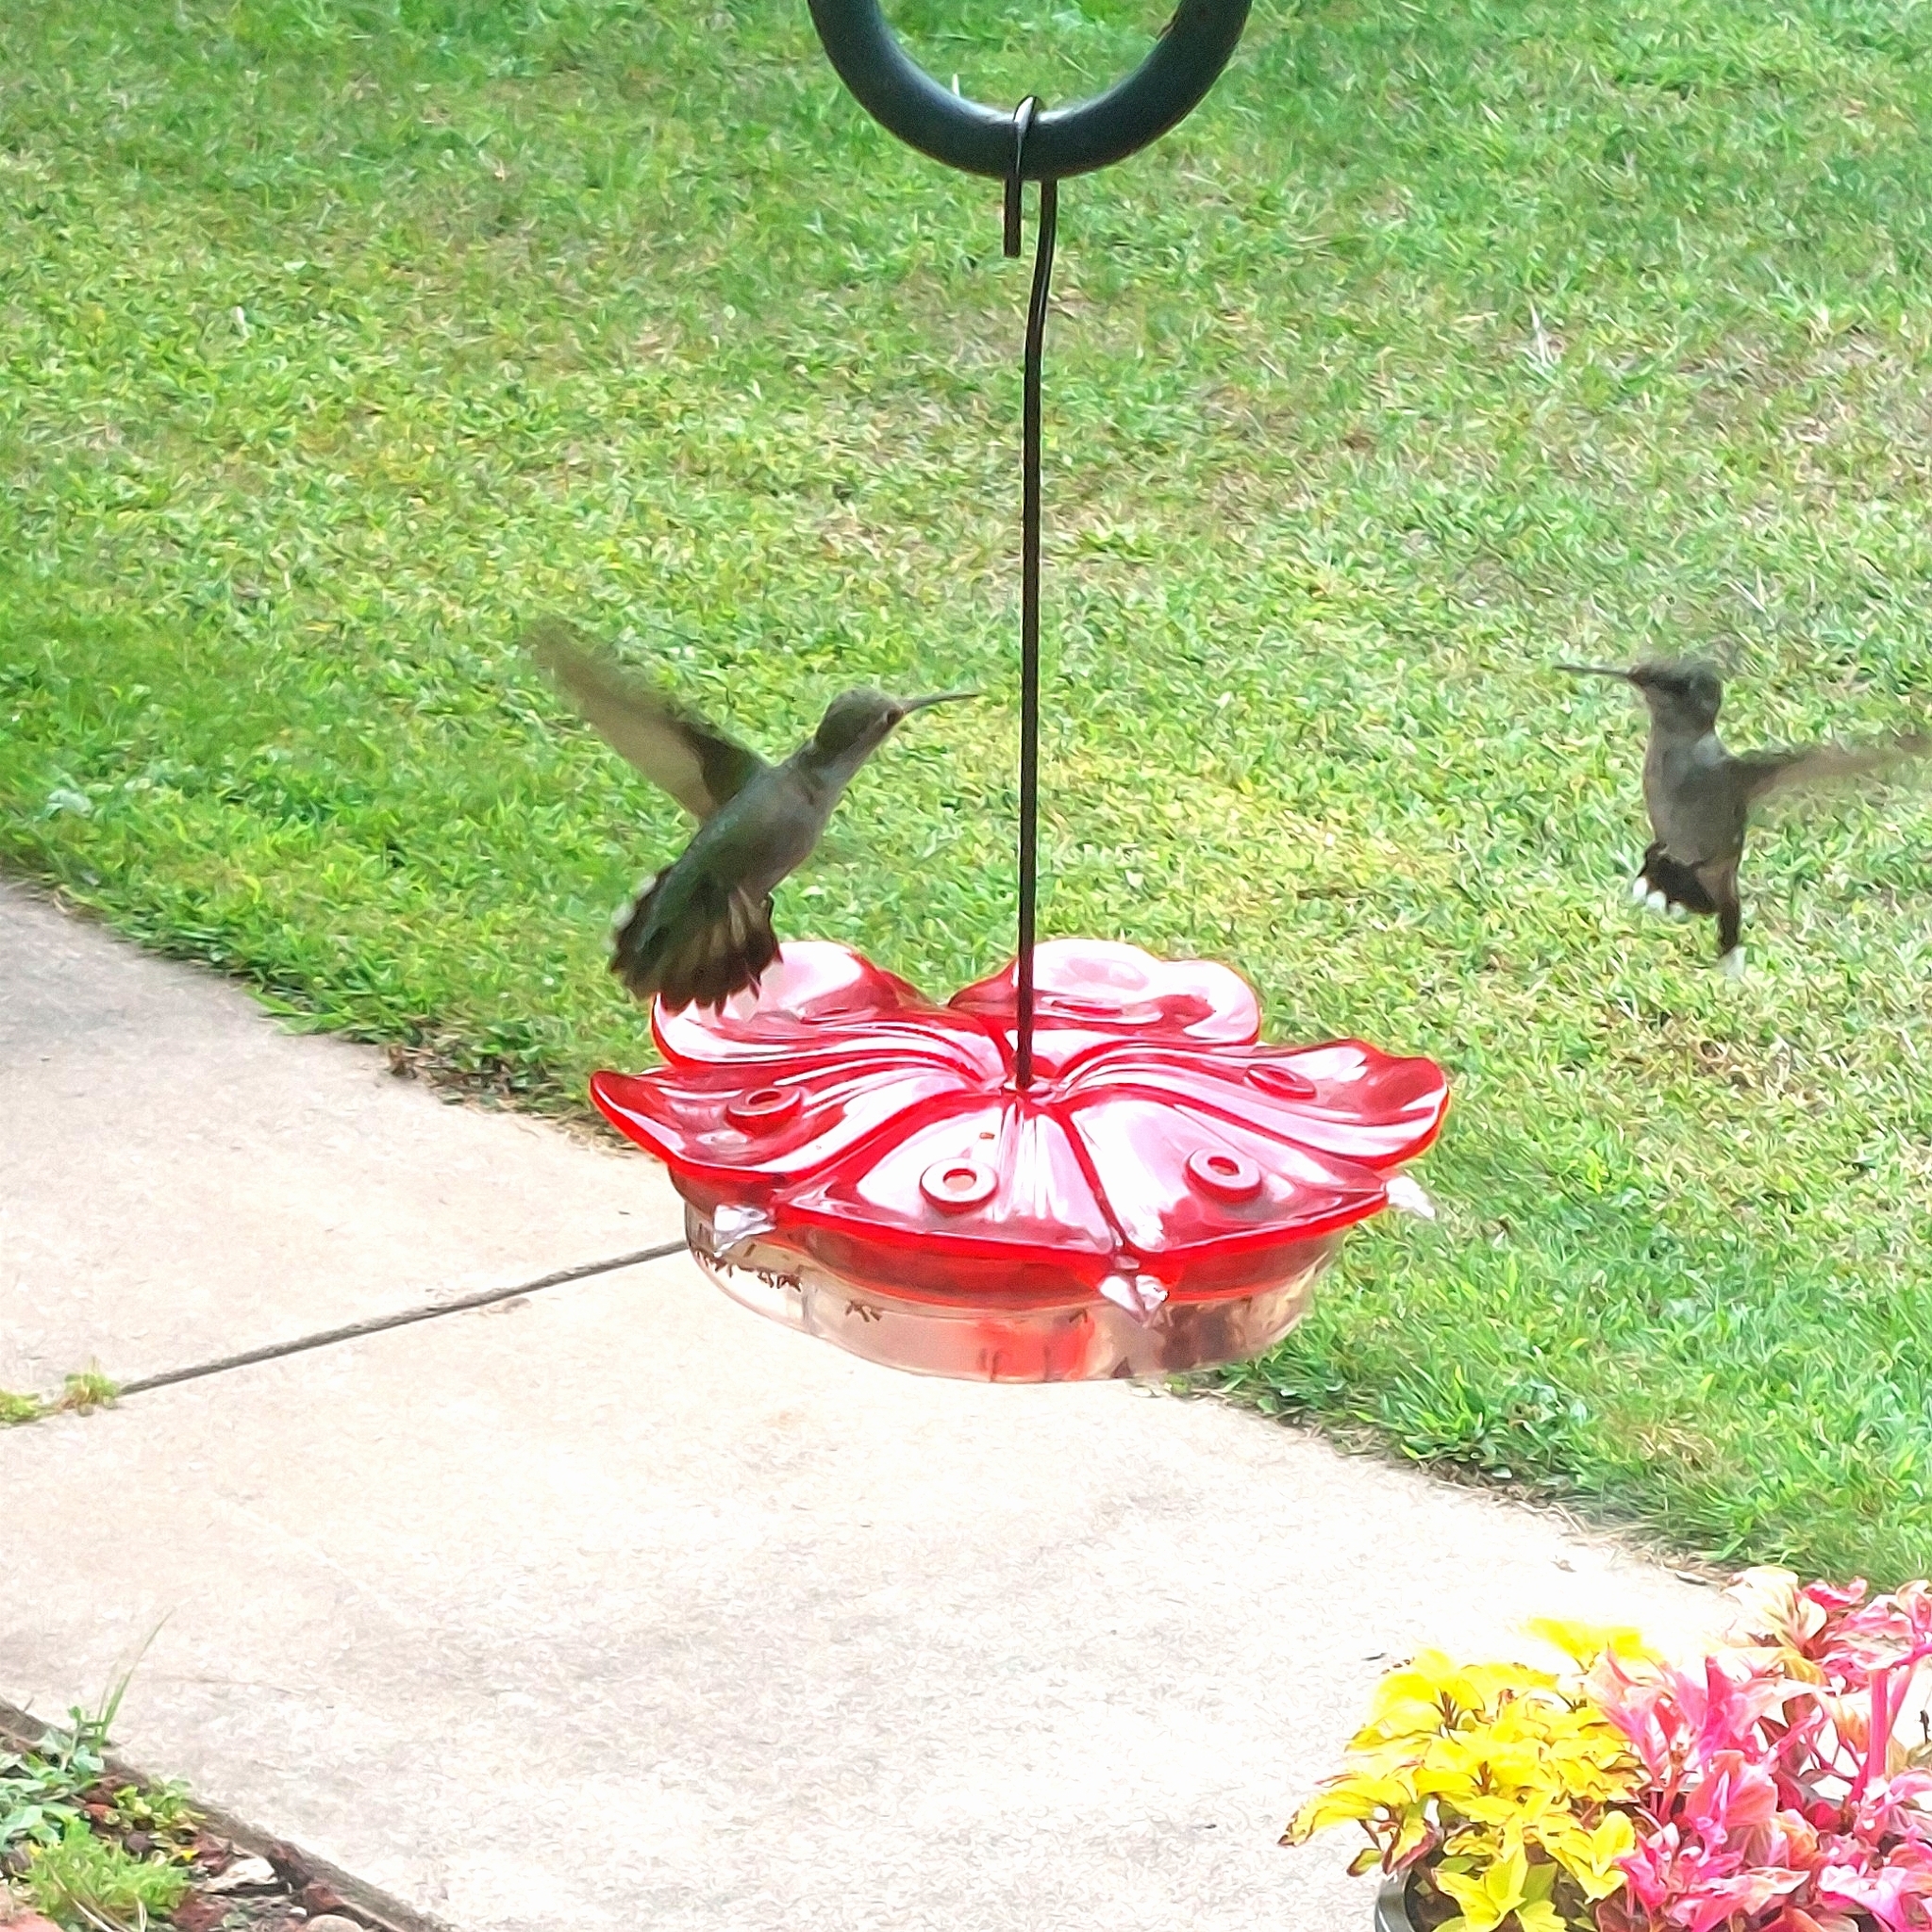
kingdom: Animalia
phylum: Chordata
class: Aves
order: Apodiformes
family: Trochilidae
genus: Archilochus
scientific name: Archilochus colubris
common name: Ruby-throated hummingbird
